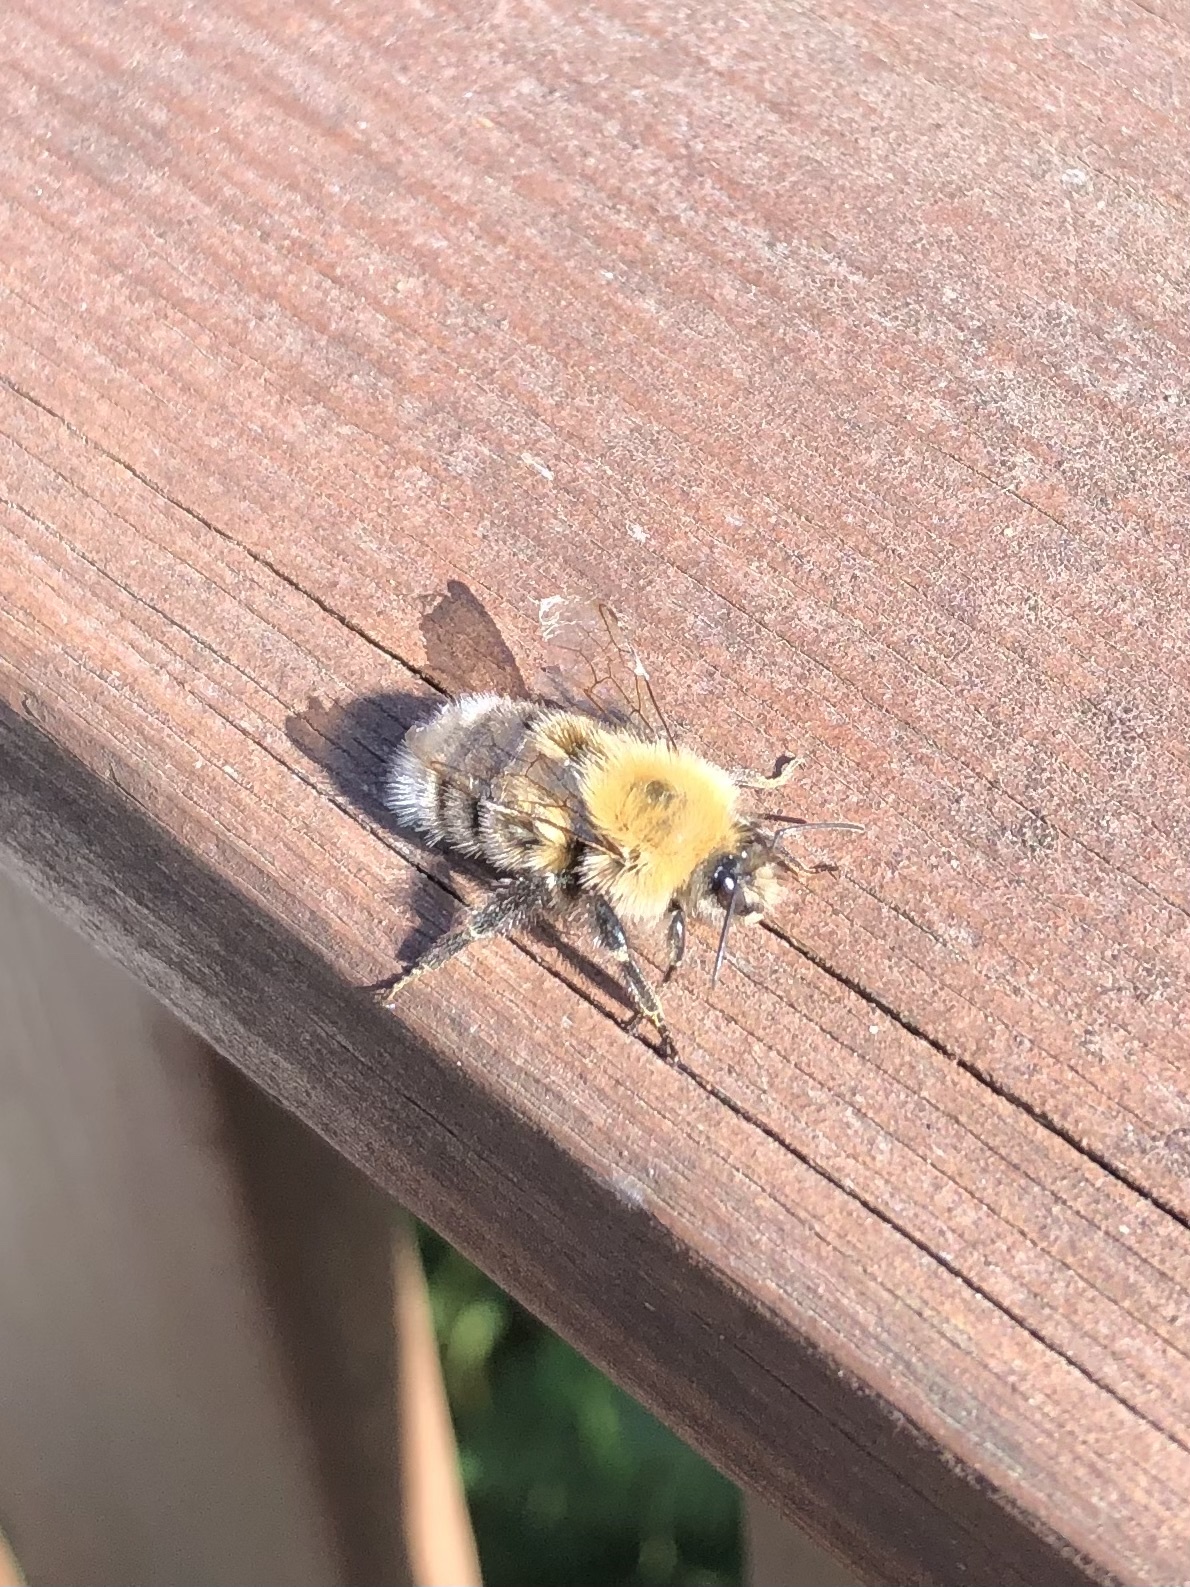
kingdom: Animalia
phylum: Arthropoda
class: Insecta
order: Hymenoptera
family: Apidae
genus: Bombus
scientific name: Bombus hypnorum
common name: New garden bumblebee
